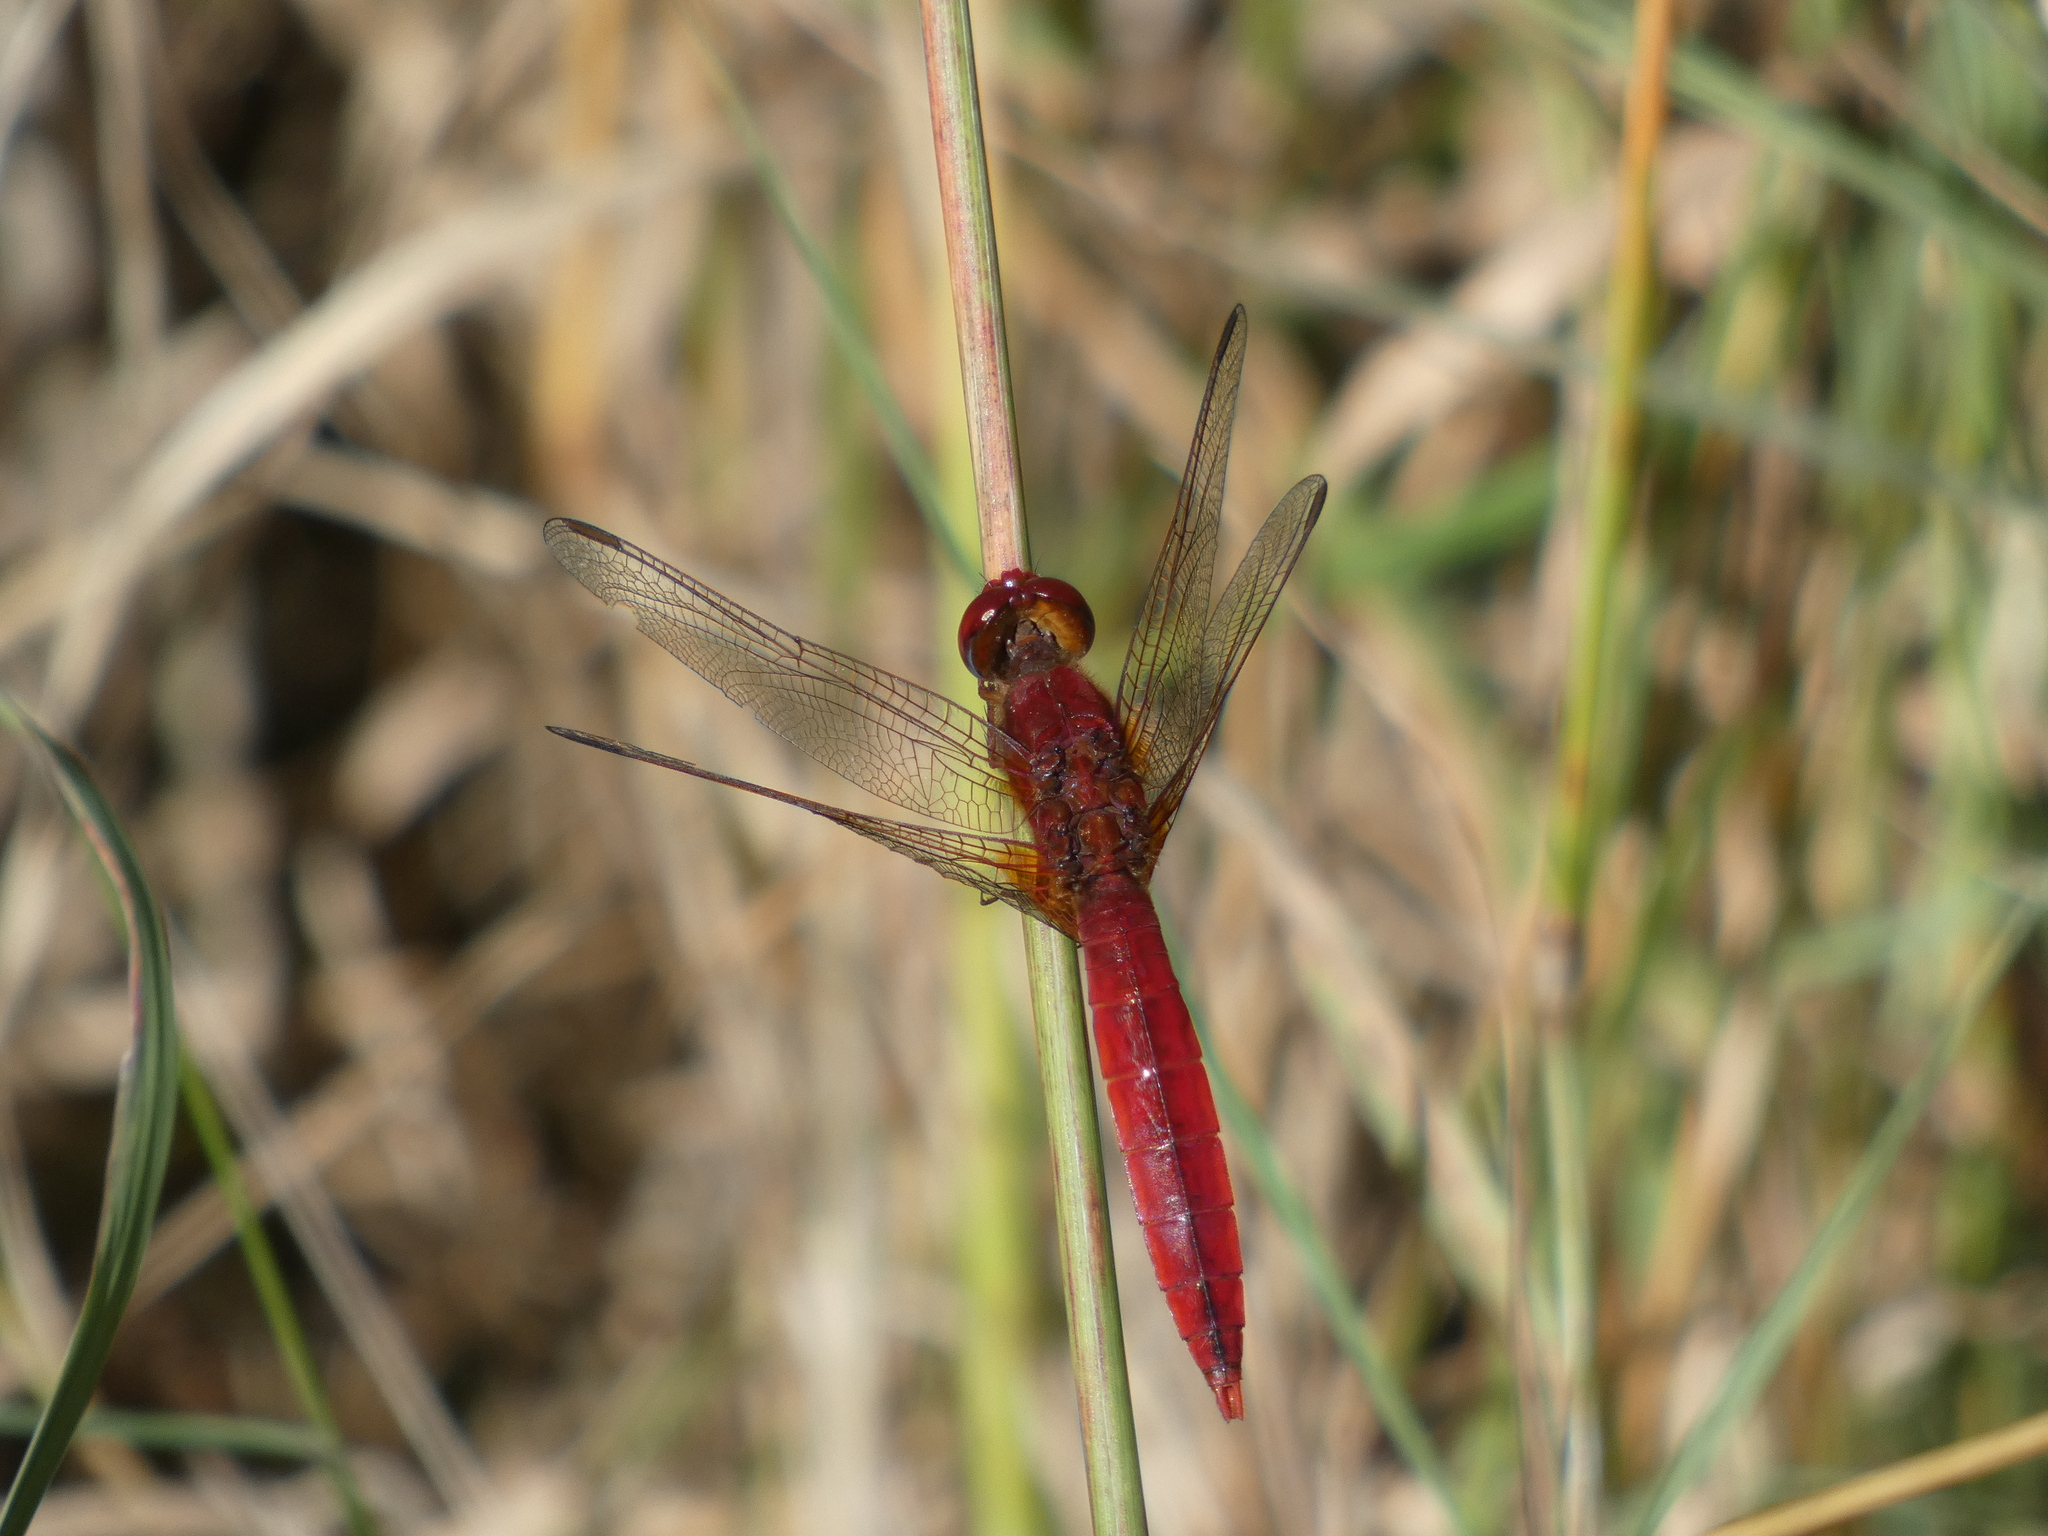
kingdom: Animalia
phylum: Arthropoda
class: Insecta
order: Odonata
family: Libellulidae
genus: Crocothemis
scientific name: Crocothemis erythraea
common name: Scarlet dragonfly
